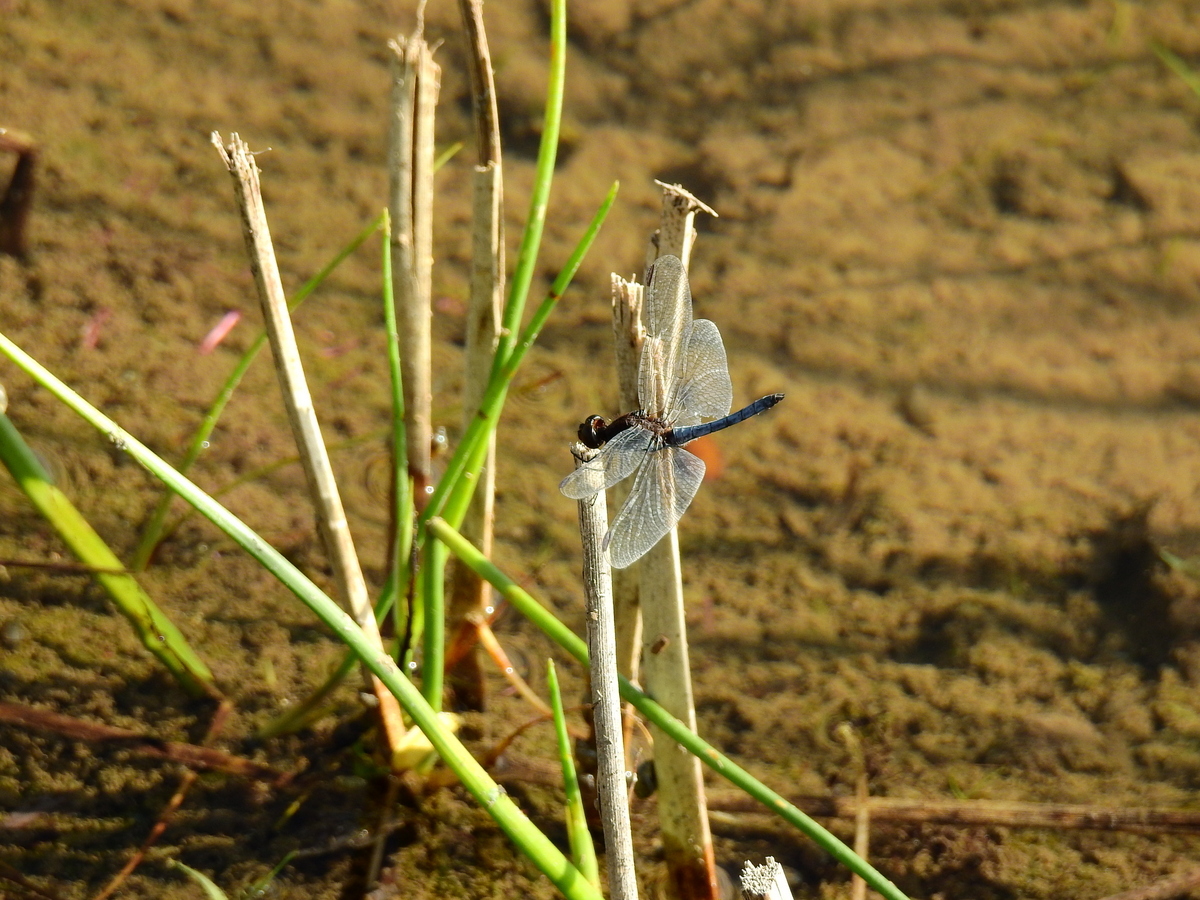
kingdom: Animalia
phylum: Arthropoda
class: Insecta
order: Odonata
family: Libellulidae
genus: Erythrodiplax
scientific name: Erythrodiplax connata
